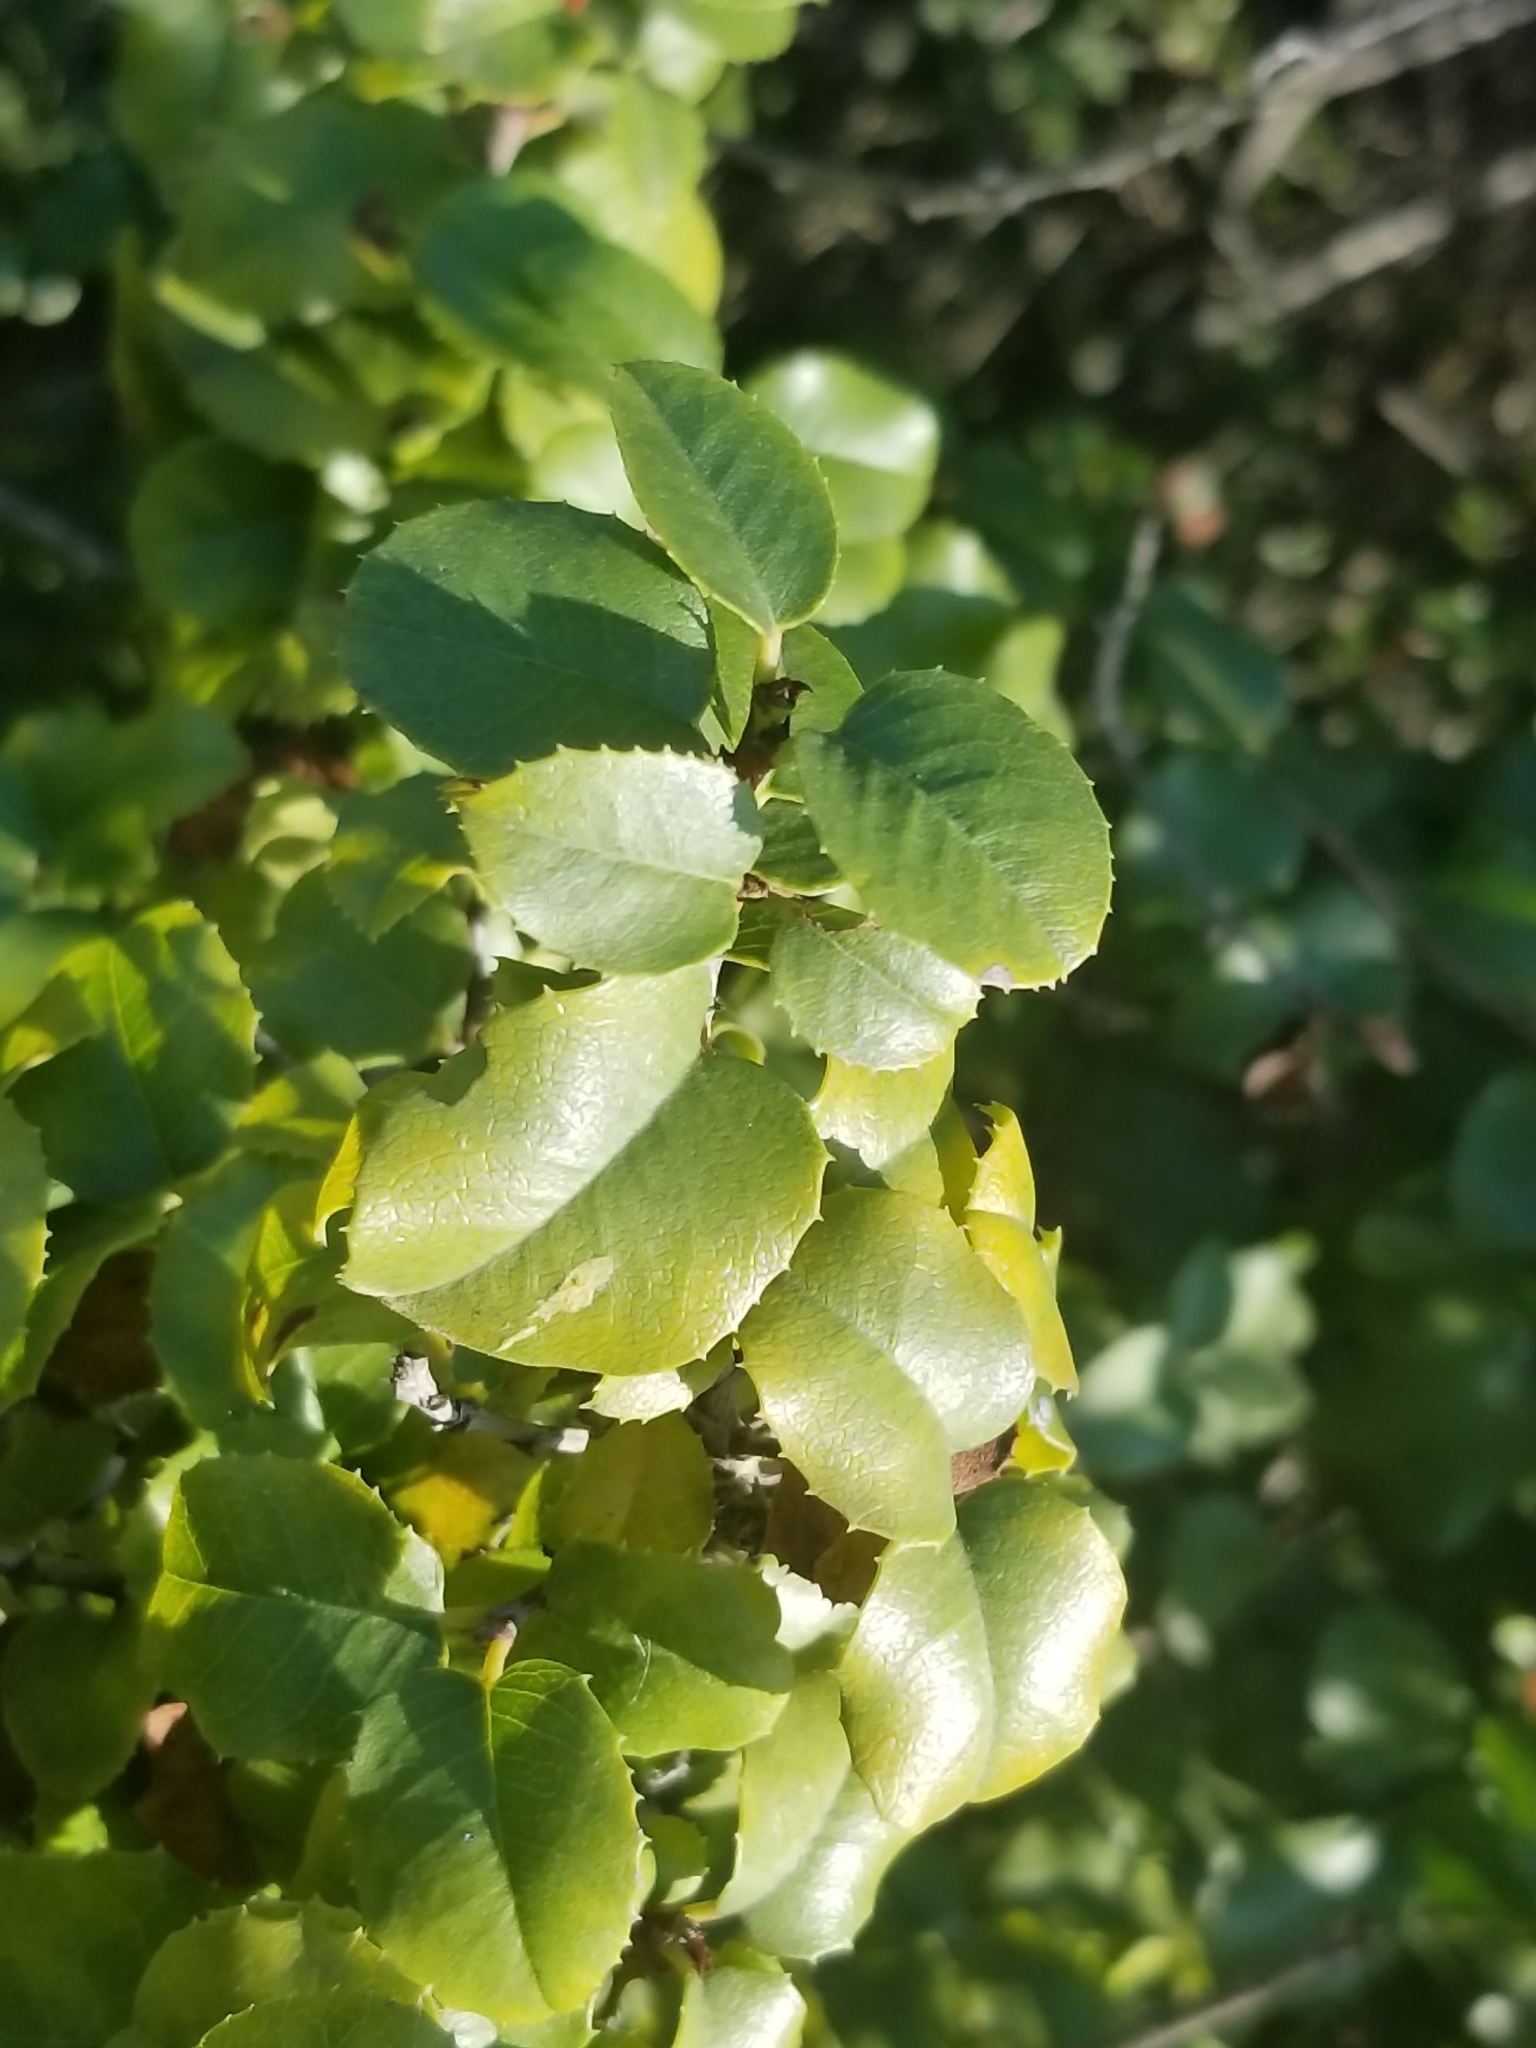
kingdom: Plantae
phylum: Tracheophyta
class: Magnoliopsida
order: Rosales
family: Rosaceae
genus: Prunus
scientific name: Prunus ilicifolia
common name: Hollyleaf cherry
